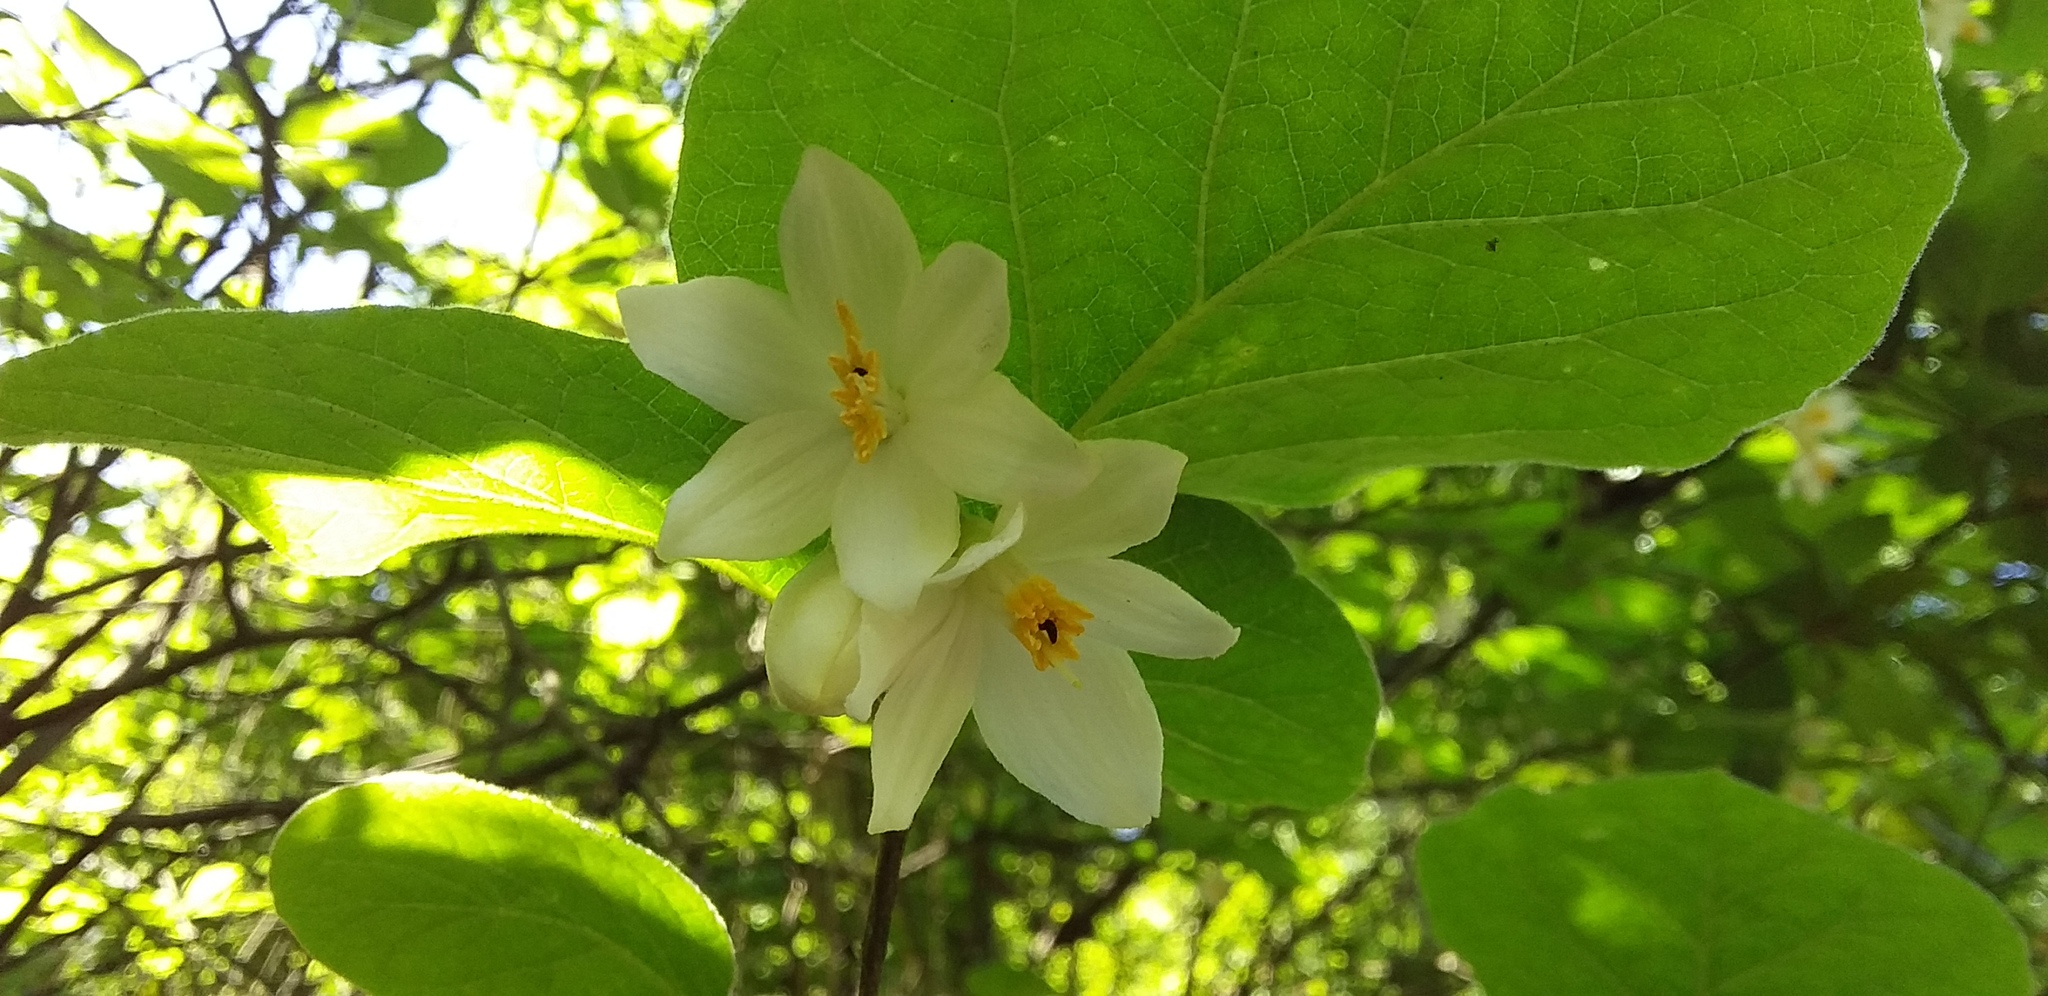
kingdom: Plantae
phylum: Tracheophyta
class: Magnoliopsida
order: Ericales
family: Styracaceae
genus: Styrax
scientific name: Styrax platanifolius
